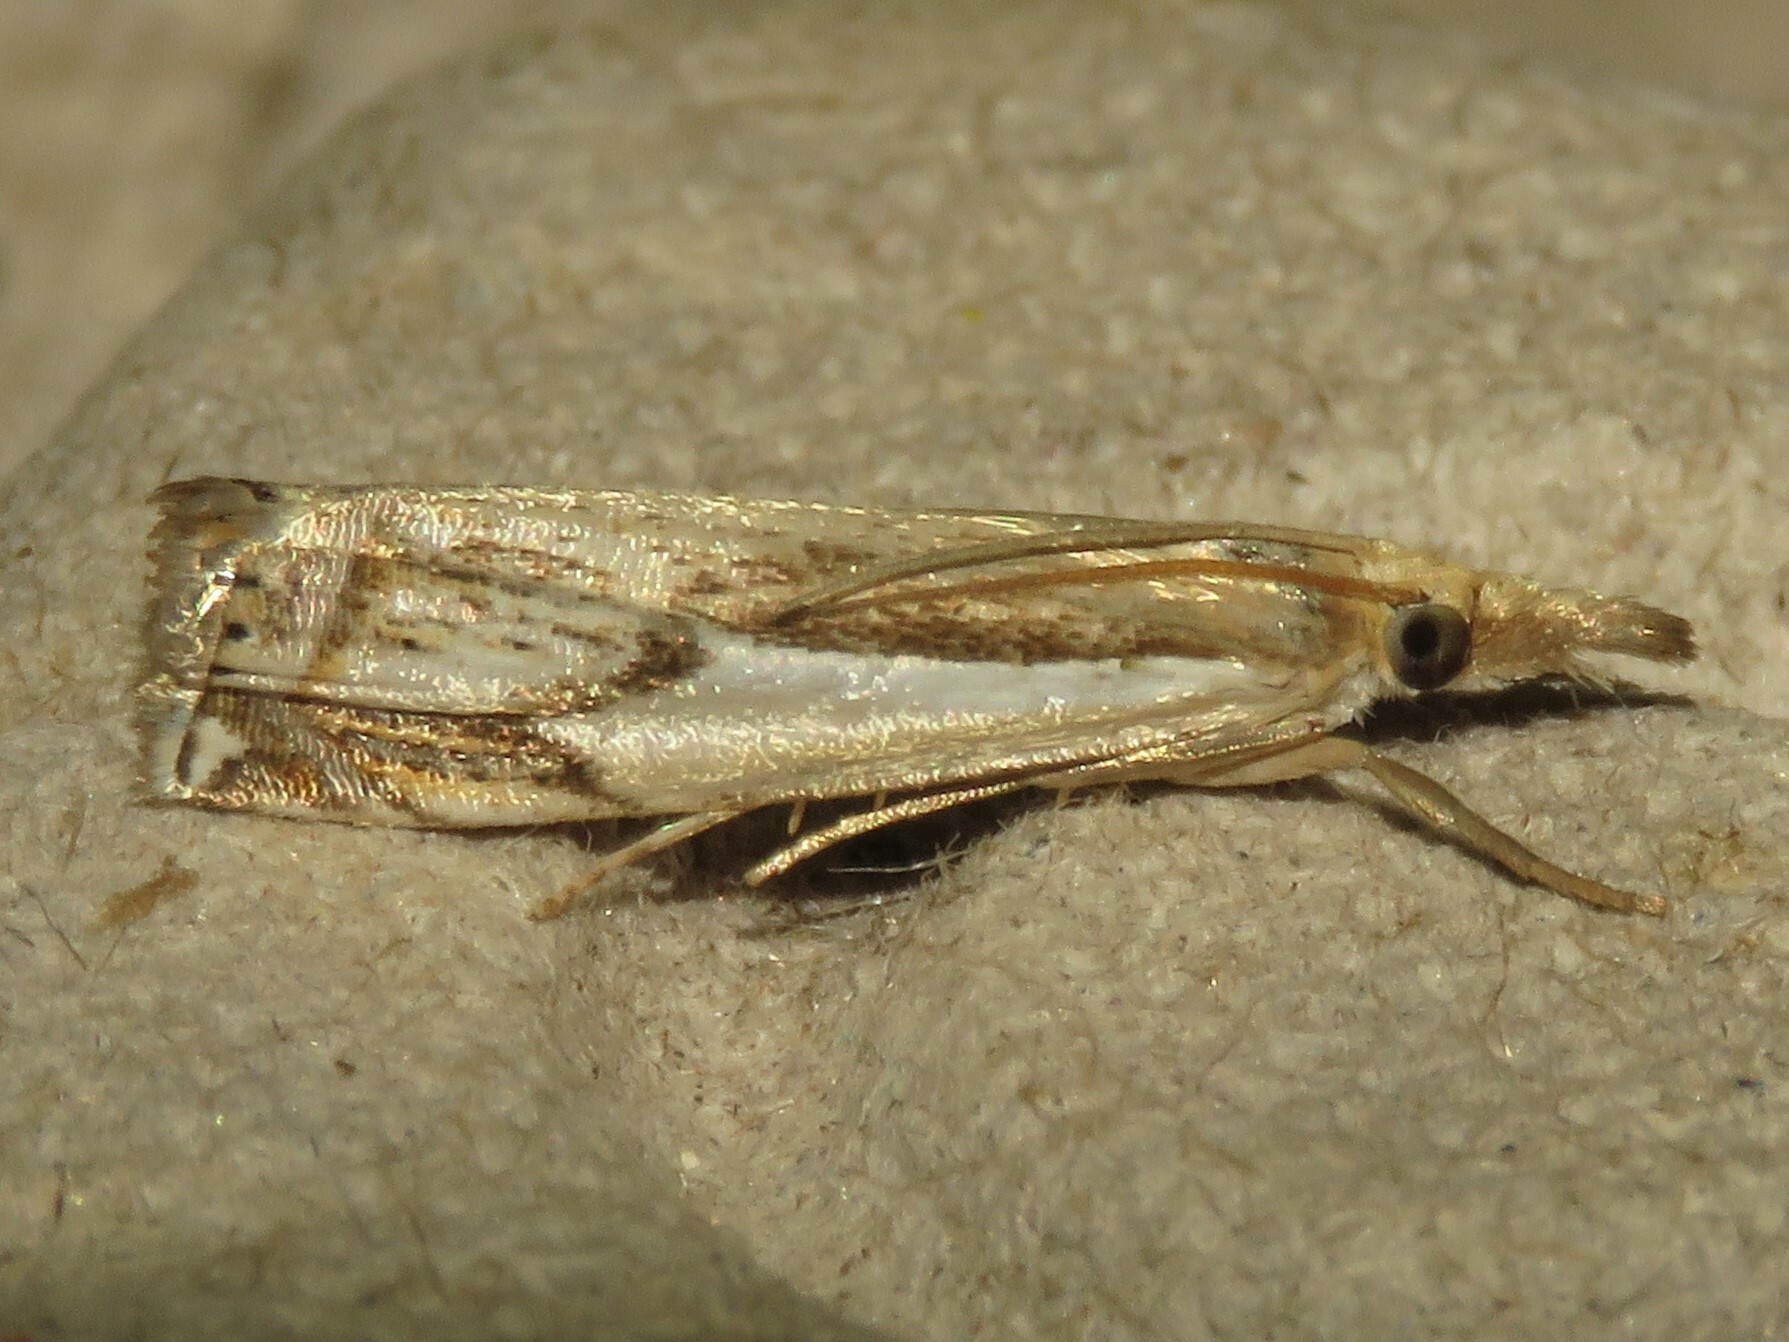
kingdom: Animalia
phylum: Arthropoda
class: Insecta
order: Lepidoptera
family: Crambidae
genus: Crambus
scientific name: Crambus agitatellus
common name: Double-banded grass-veneer
